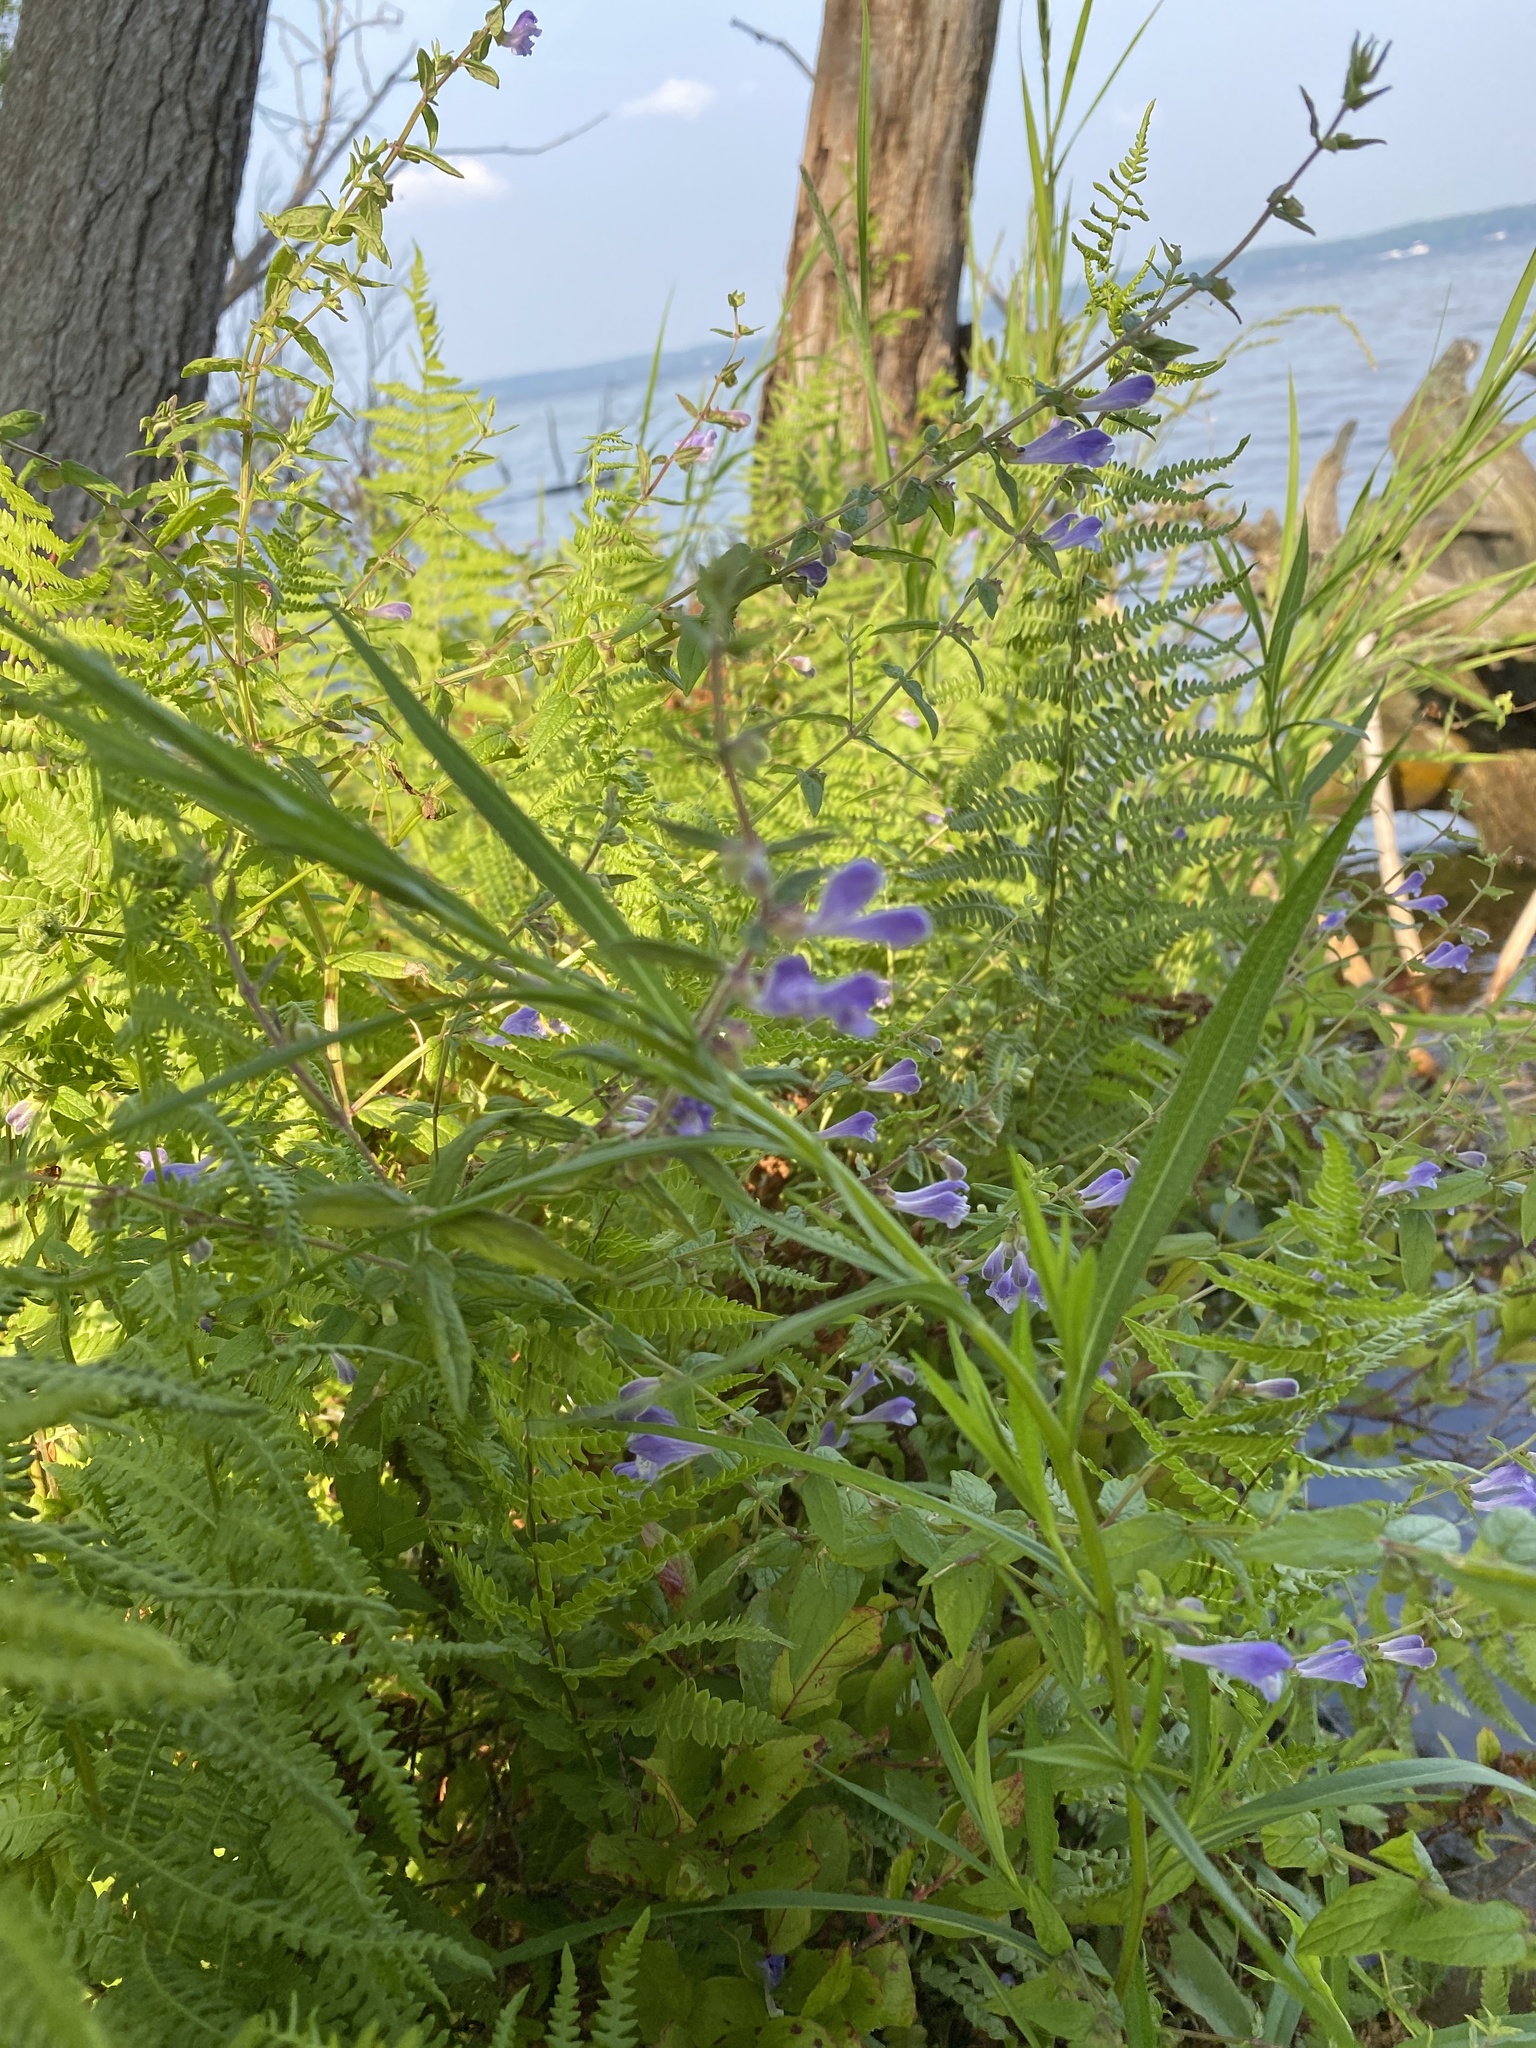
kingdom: Plantae
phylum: Tracheophyta
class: Magnoliopsida
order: Lamiales
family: Lamiaceae
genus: Scutellaria
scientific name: Scutellaria galericulata
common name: Skullcap
